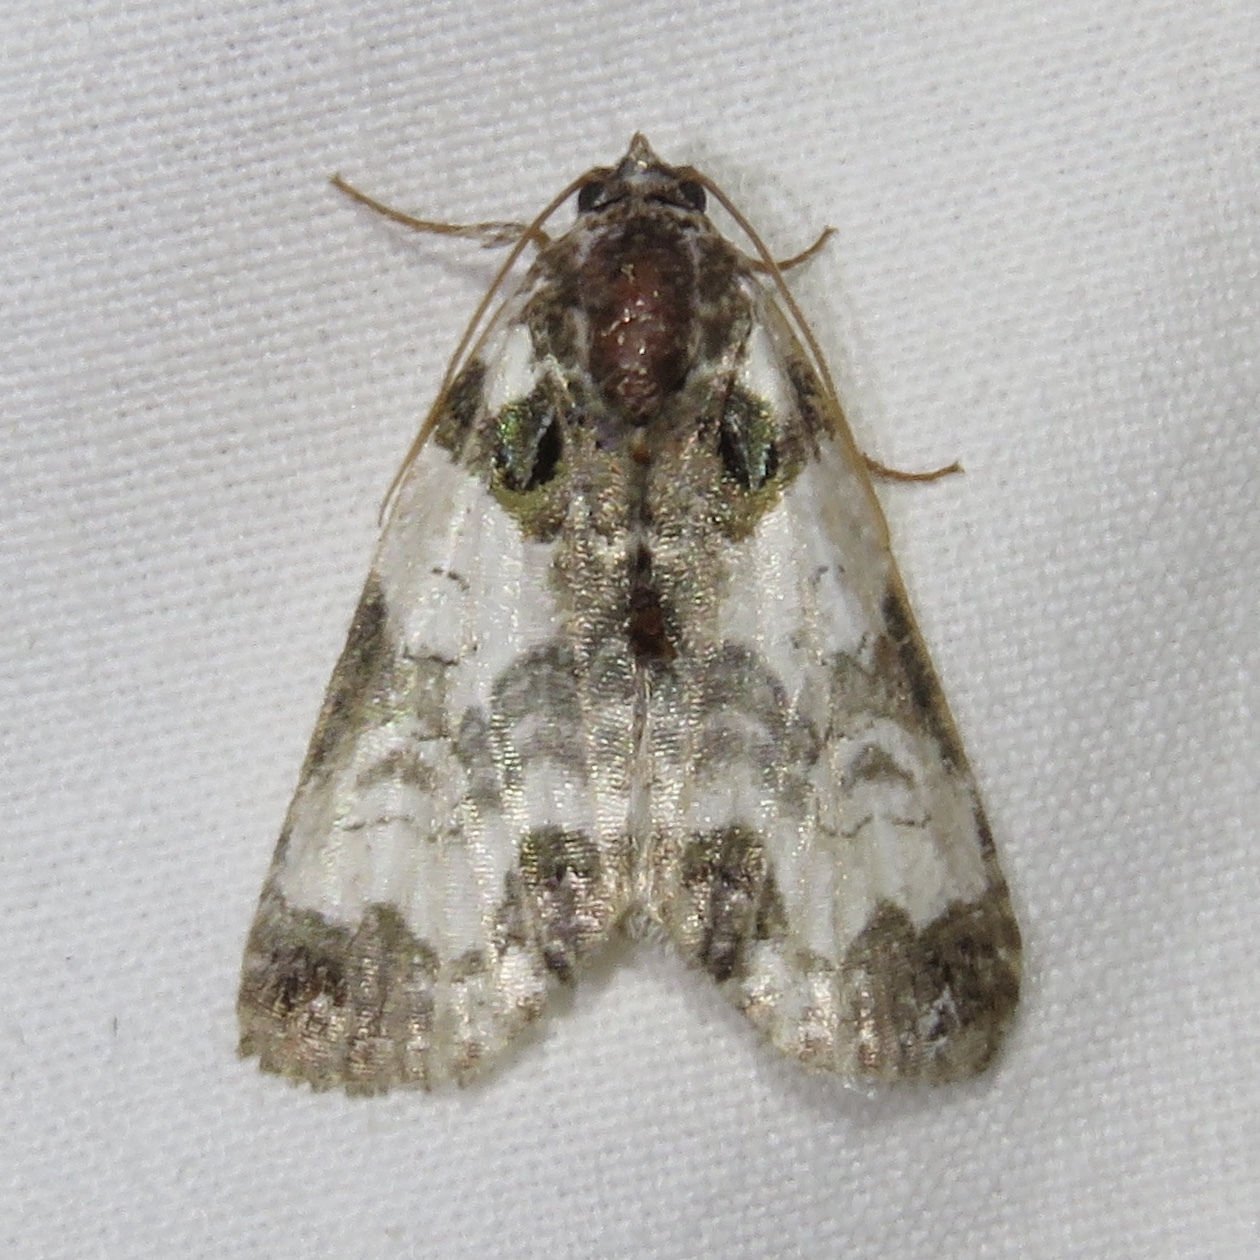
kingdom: Animalia
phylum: Arthropoda
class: Insecta
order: Lepidoptera
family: Noctuidae
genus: Cerma
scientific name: Cerma cerintha
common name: Tufted bird-dropping moth
